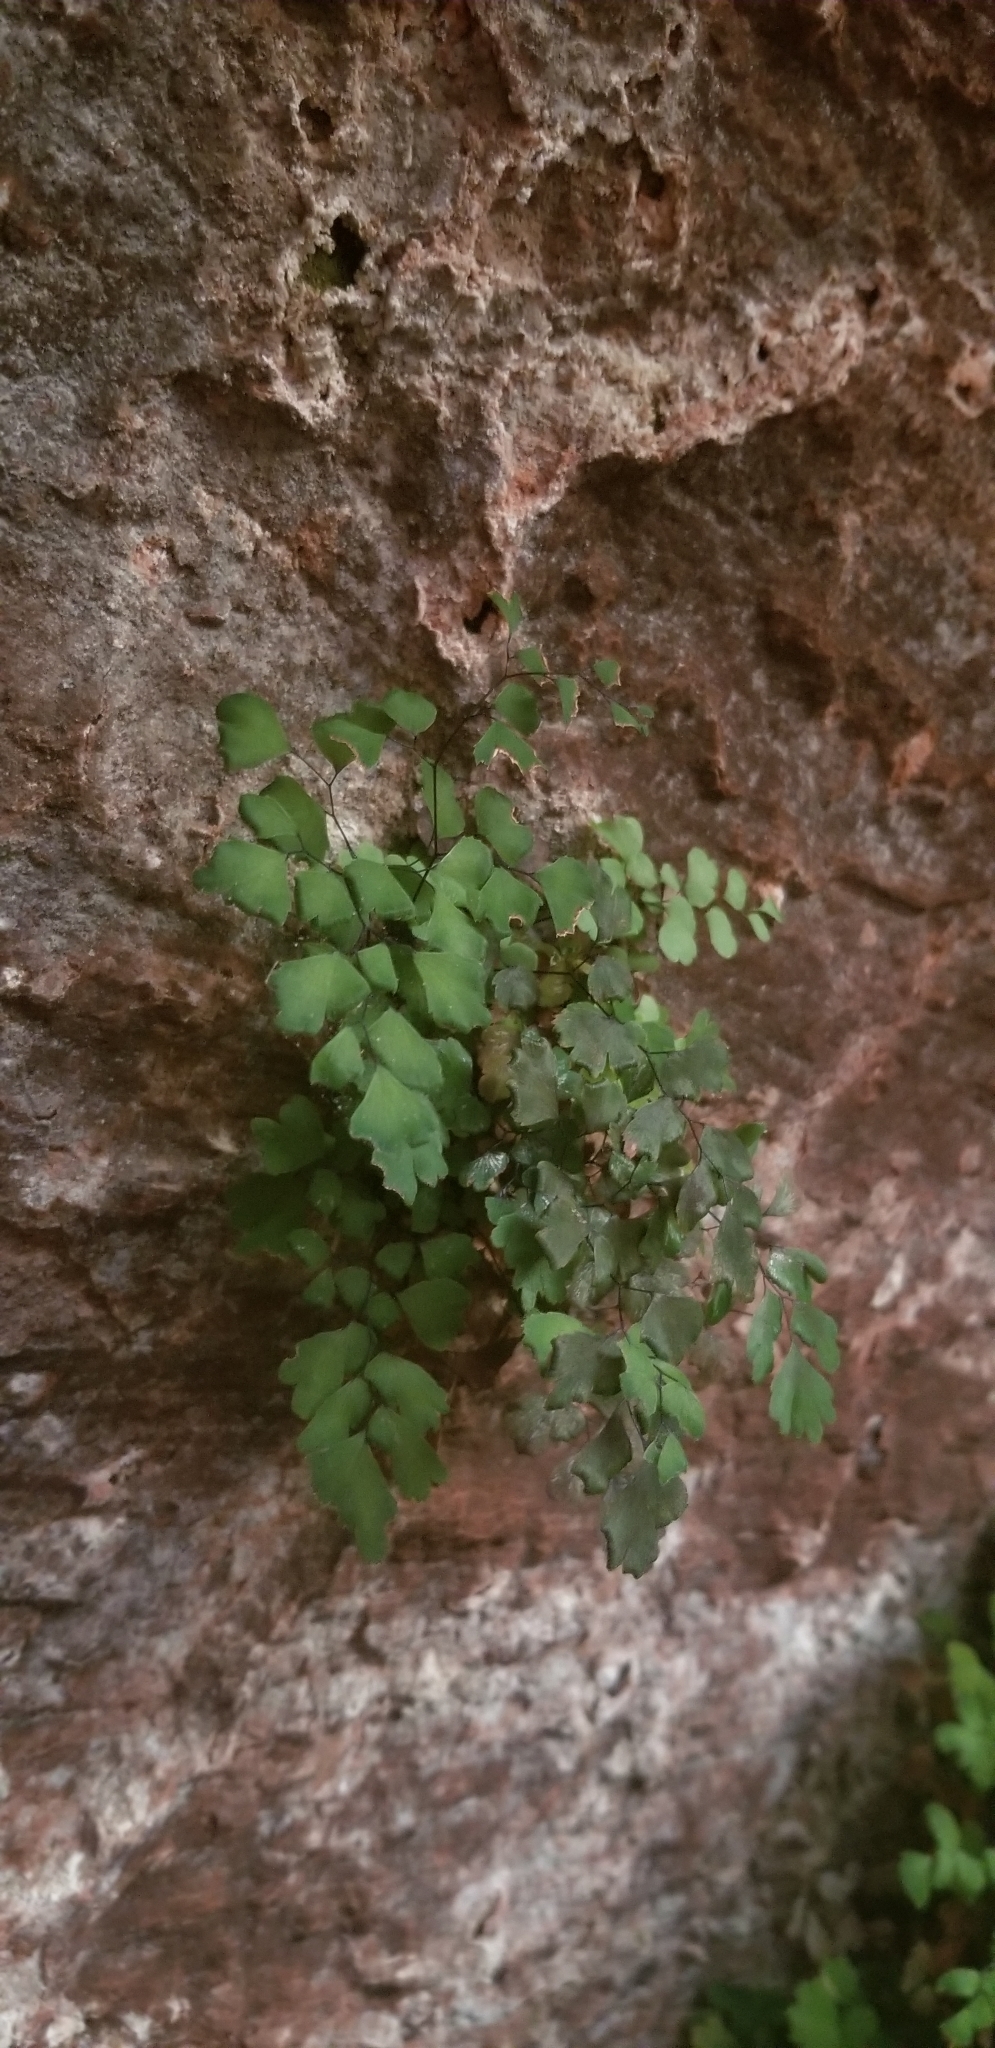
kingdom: Plantae
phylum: Tracheophyta
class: Polypodiopsida
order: Polypodiales
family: Pteridaceae
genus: Adiantum
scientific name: Adiantum capillus-veneris
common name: Maidenhair fern
